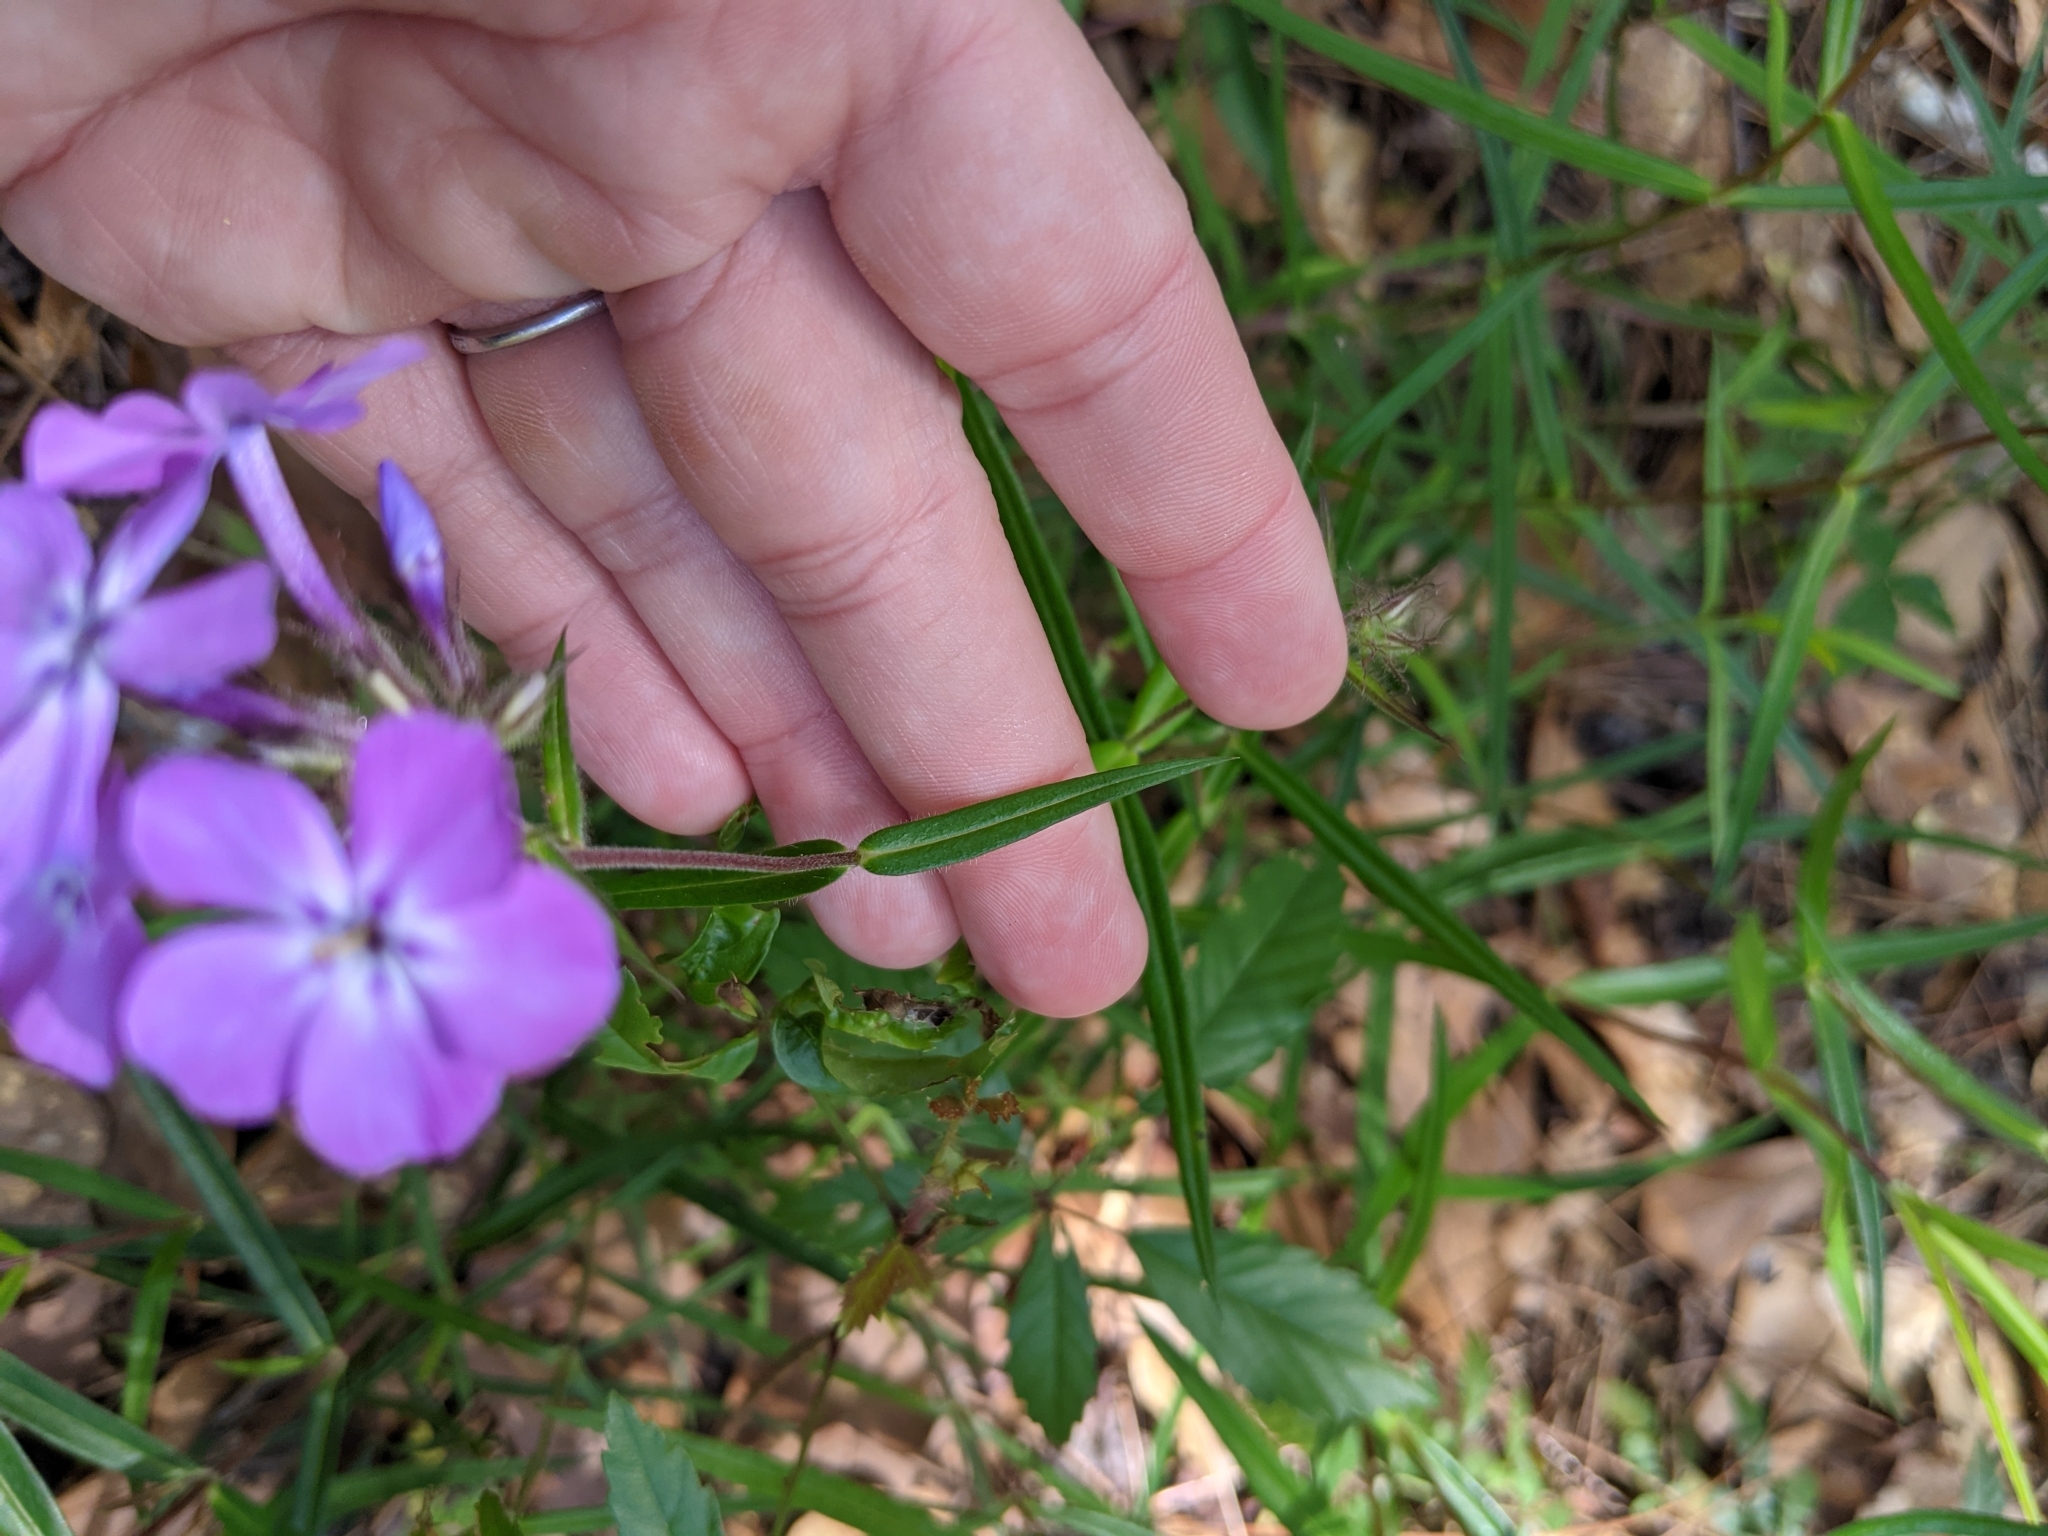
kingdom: Plantae
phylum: Tracheophyta
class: Magnoliopsida
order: Ericales
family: Polemoniaceae
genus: Phlox
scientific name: Phlox pilosa
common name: Prairie phlox
